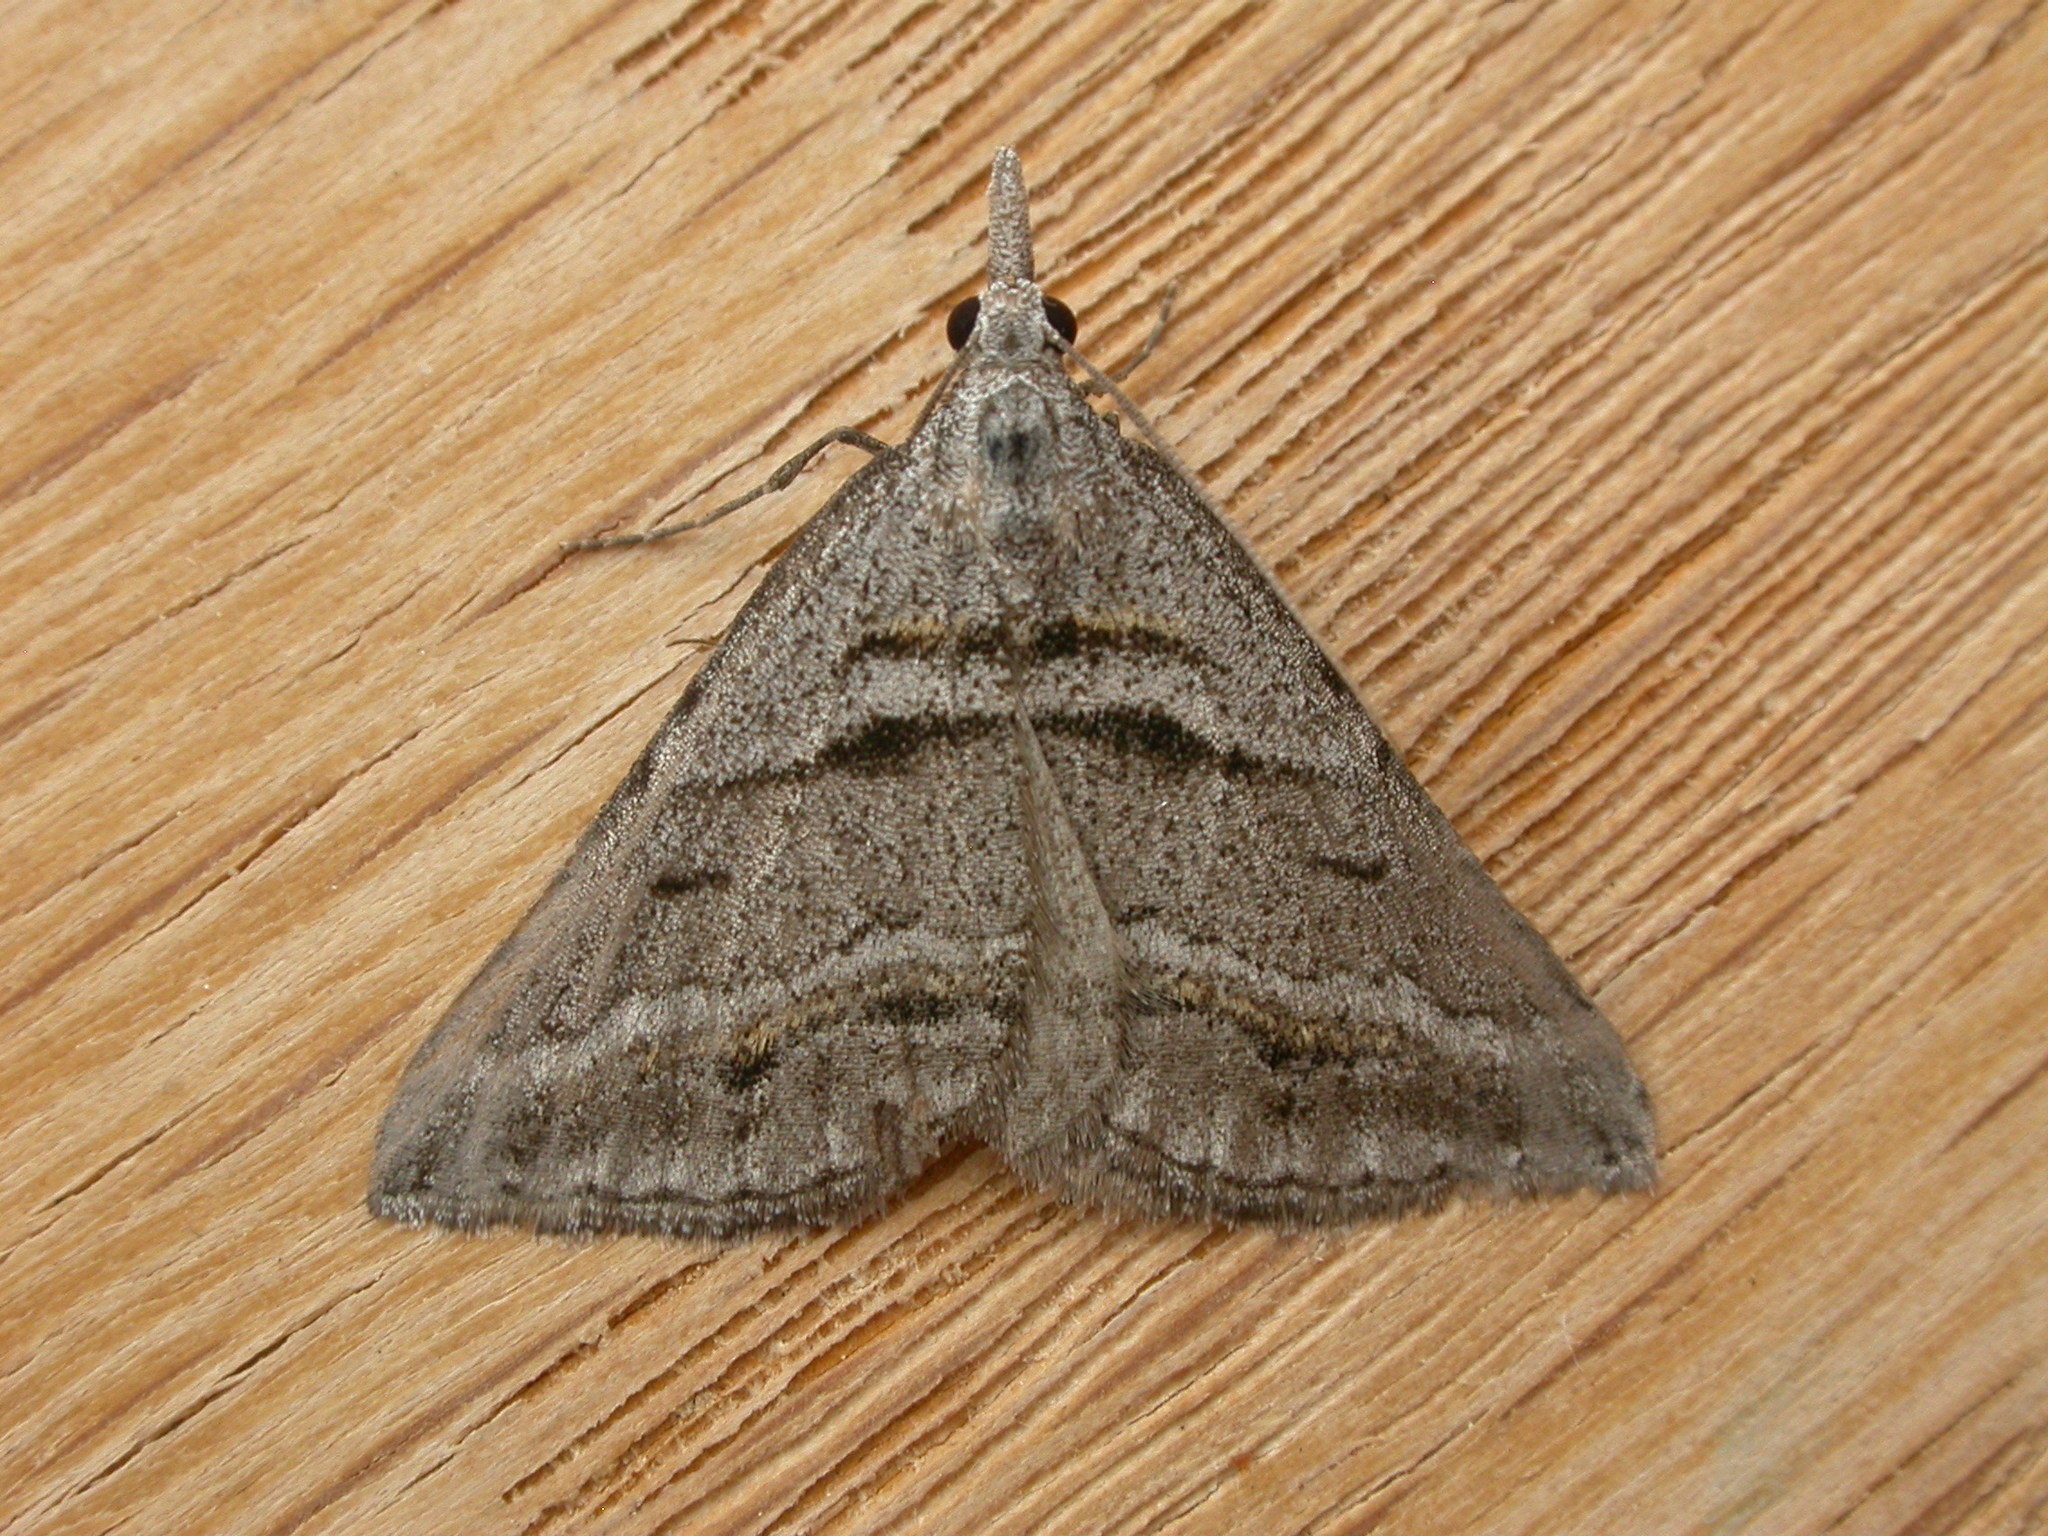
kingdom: Animalia
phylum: Arthropoda
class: Insecta
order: Lepidoptera
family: Geometridae
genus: Dichromodes
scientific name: Dichromodes consignata
